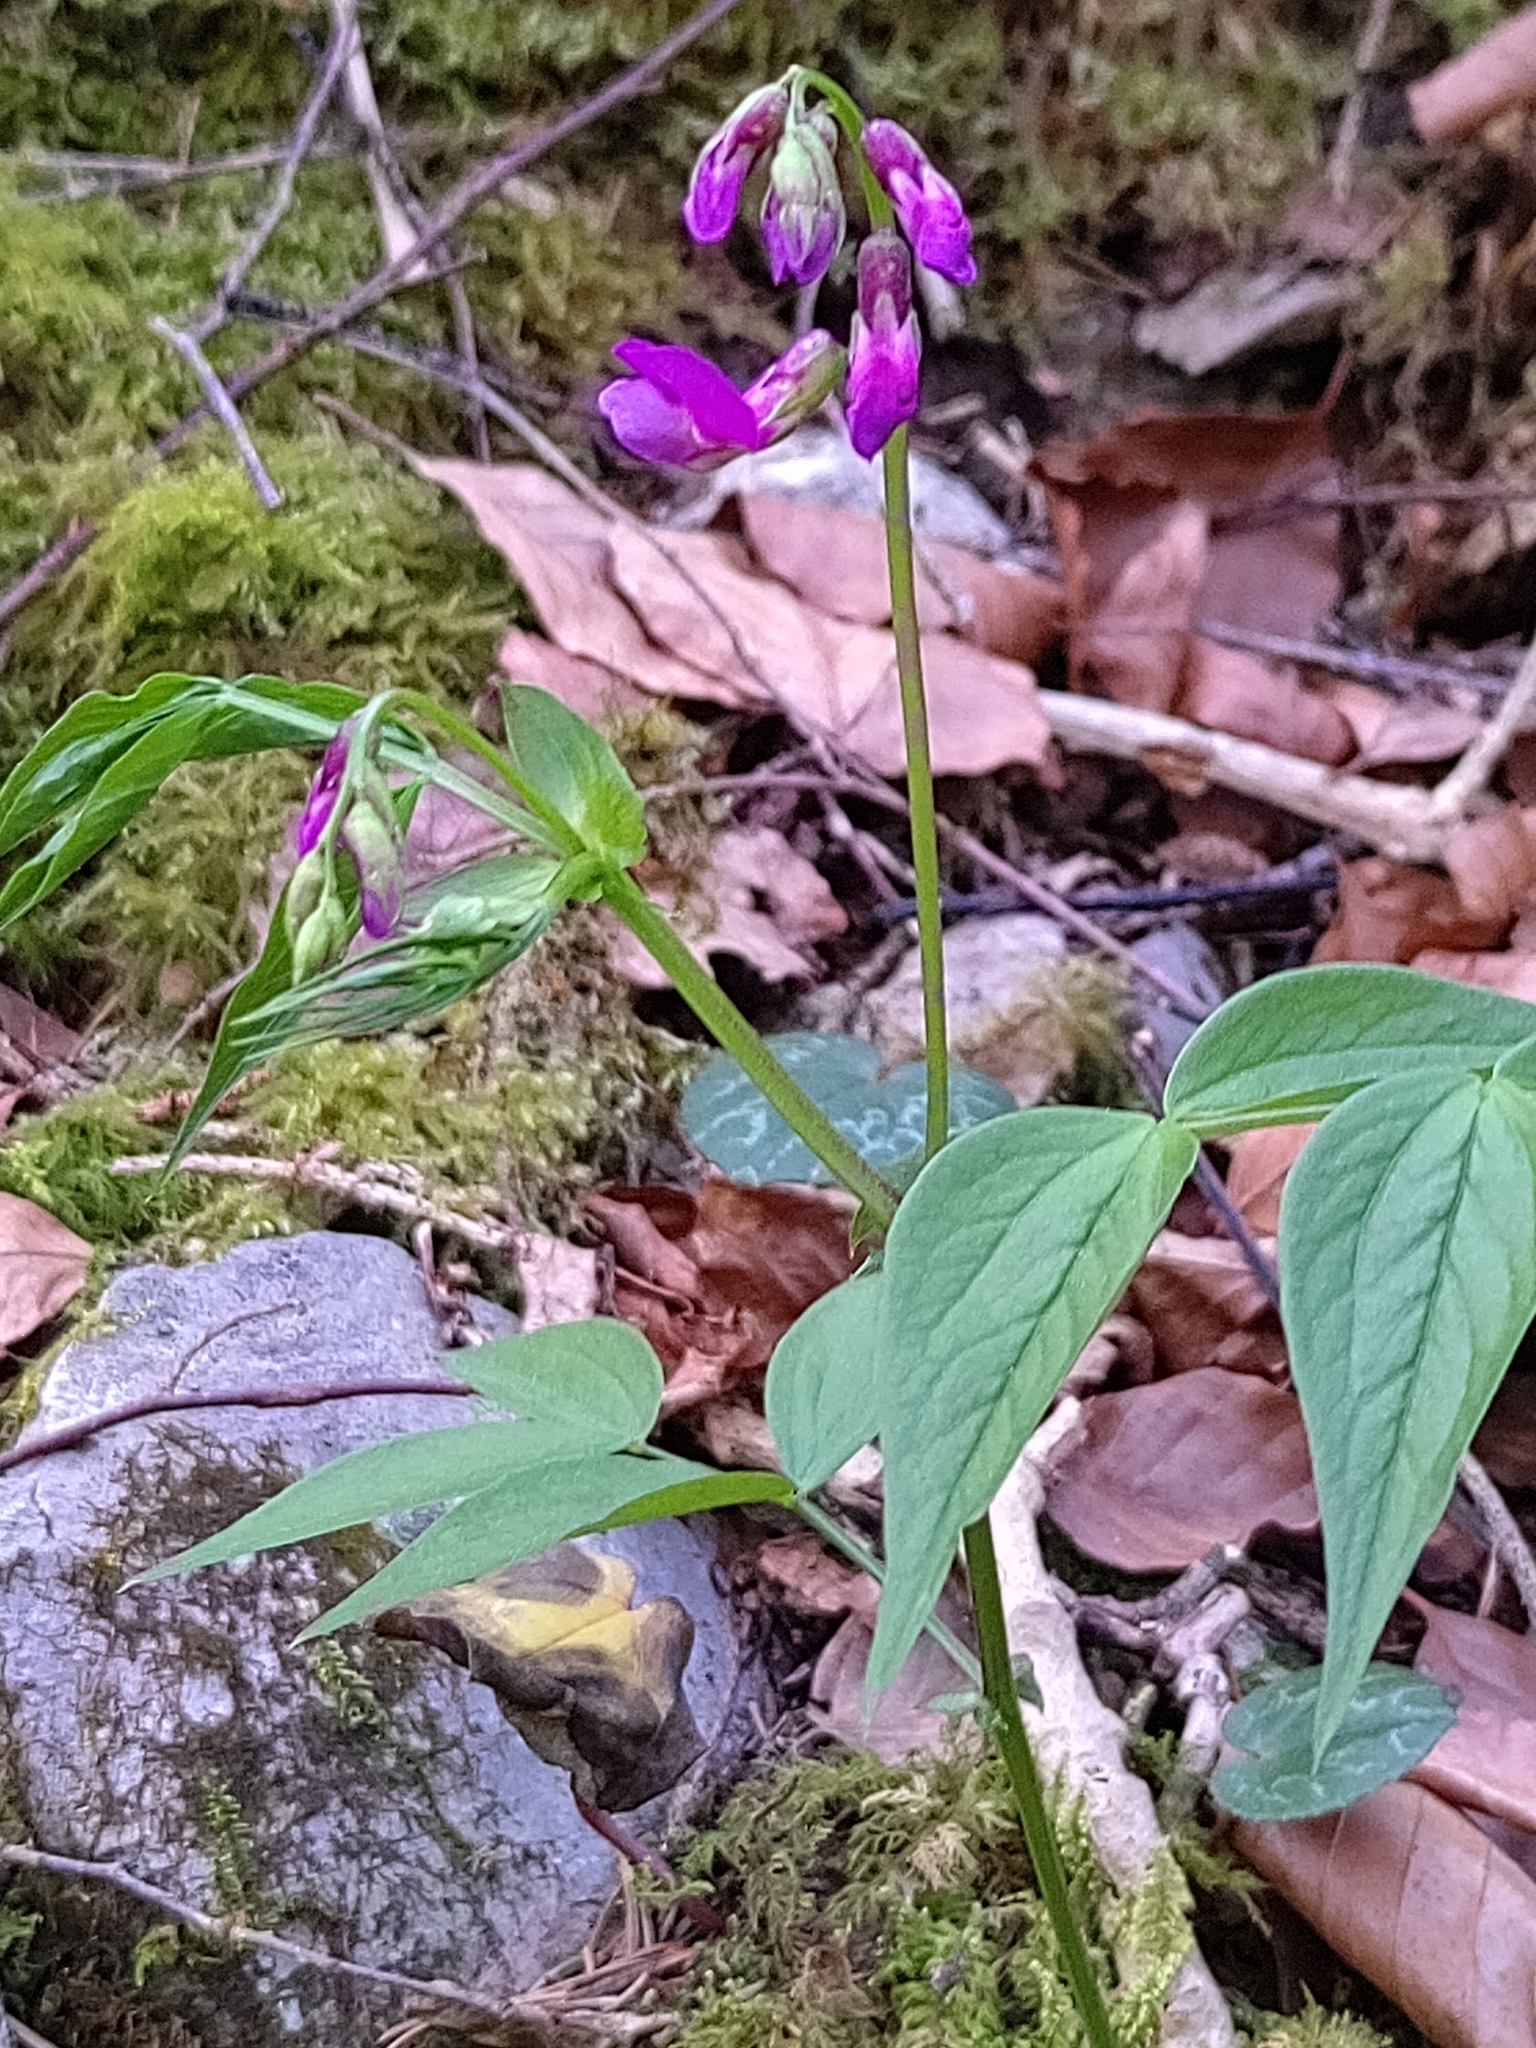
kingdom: Plantae
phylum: Tracheophyta
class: Magnoliopsida
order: Fabales
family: Fabaceae
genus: Lathyrus
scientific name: Lathyrus vernus
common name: Spring pea
